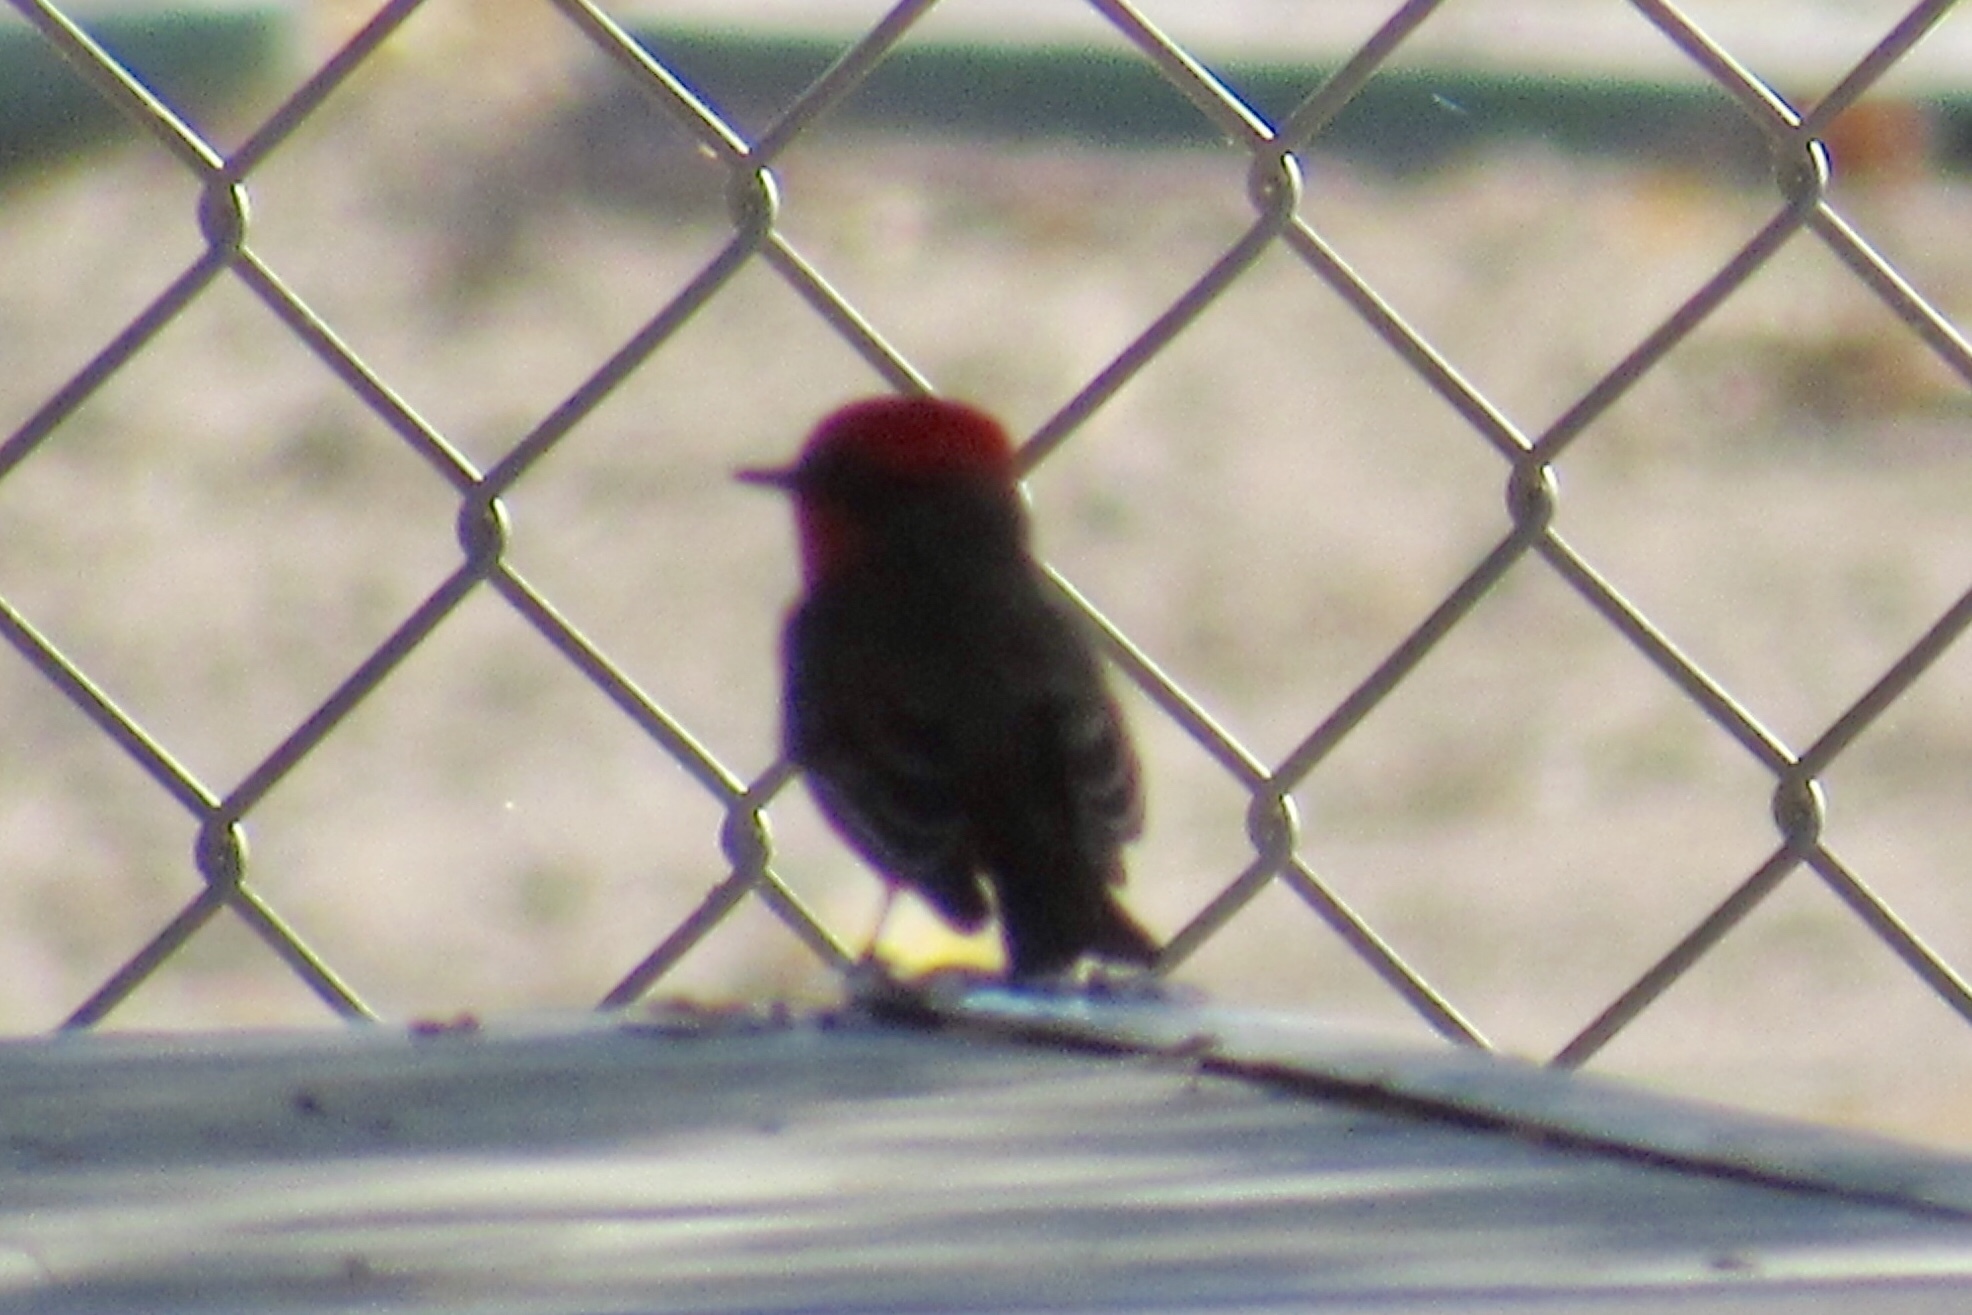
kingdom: Animalia
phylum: Chordata
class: Aves
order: Passeriformes
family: Tyrannidae
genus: Pyrocephalus
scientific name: Pyrocephalus rubinus
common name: Vermilion flycatcher
